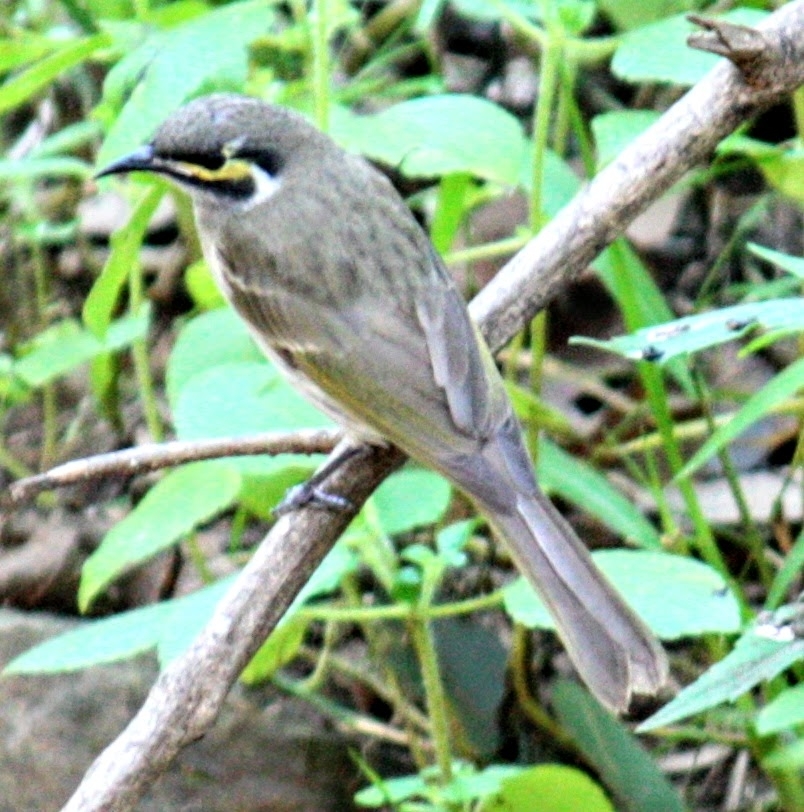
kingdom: Animalia
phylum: Chordata
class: Aves
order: Passeriformes
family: Meliphagidae
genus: Caligavis
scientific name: Caligavis chrysops
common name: Yellow-faced honeyeater
